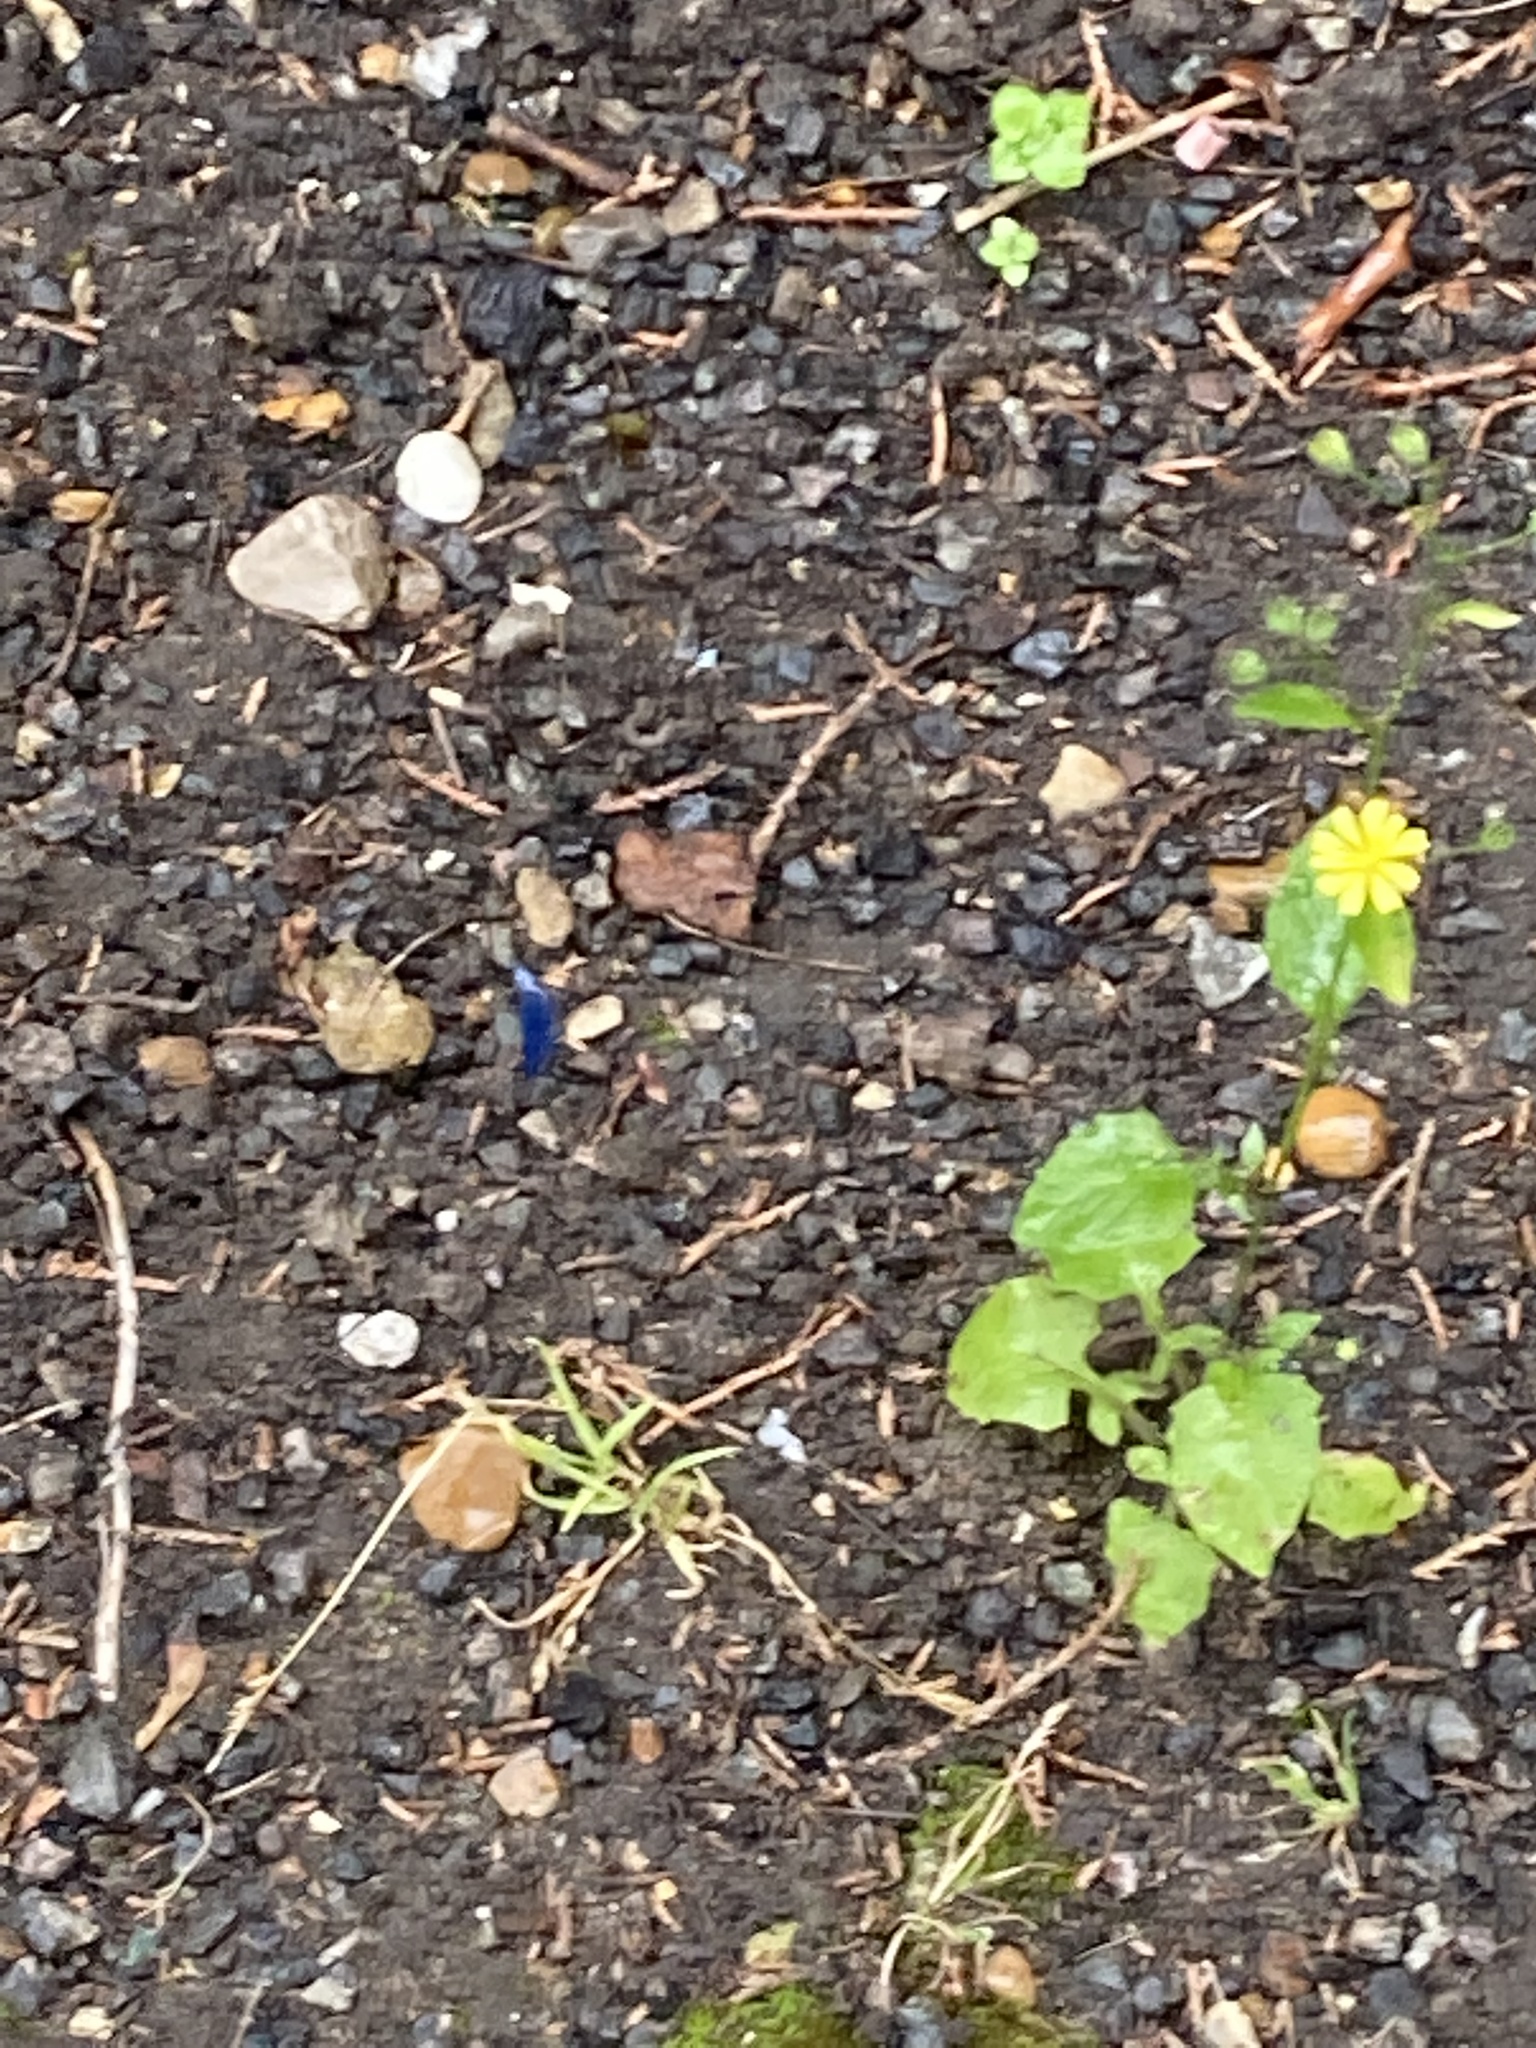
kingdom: Plantae
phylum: Tracheophyta
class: Magnoliopsida
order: Asterales
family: Asteraceae
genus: Lapsana
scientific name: Lapsana communis
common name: Nipplewort
